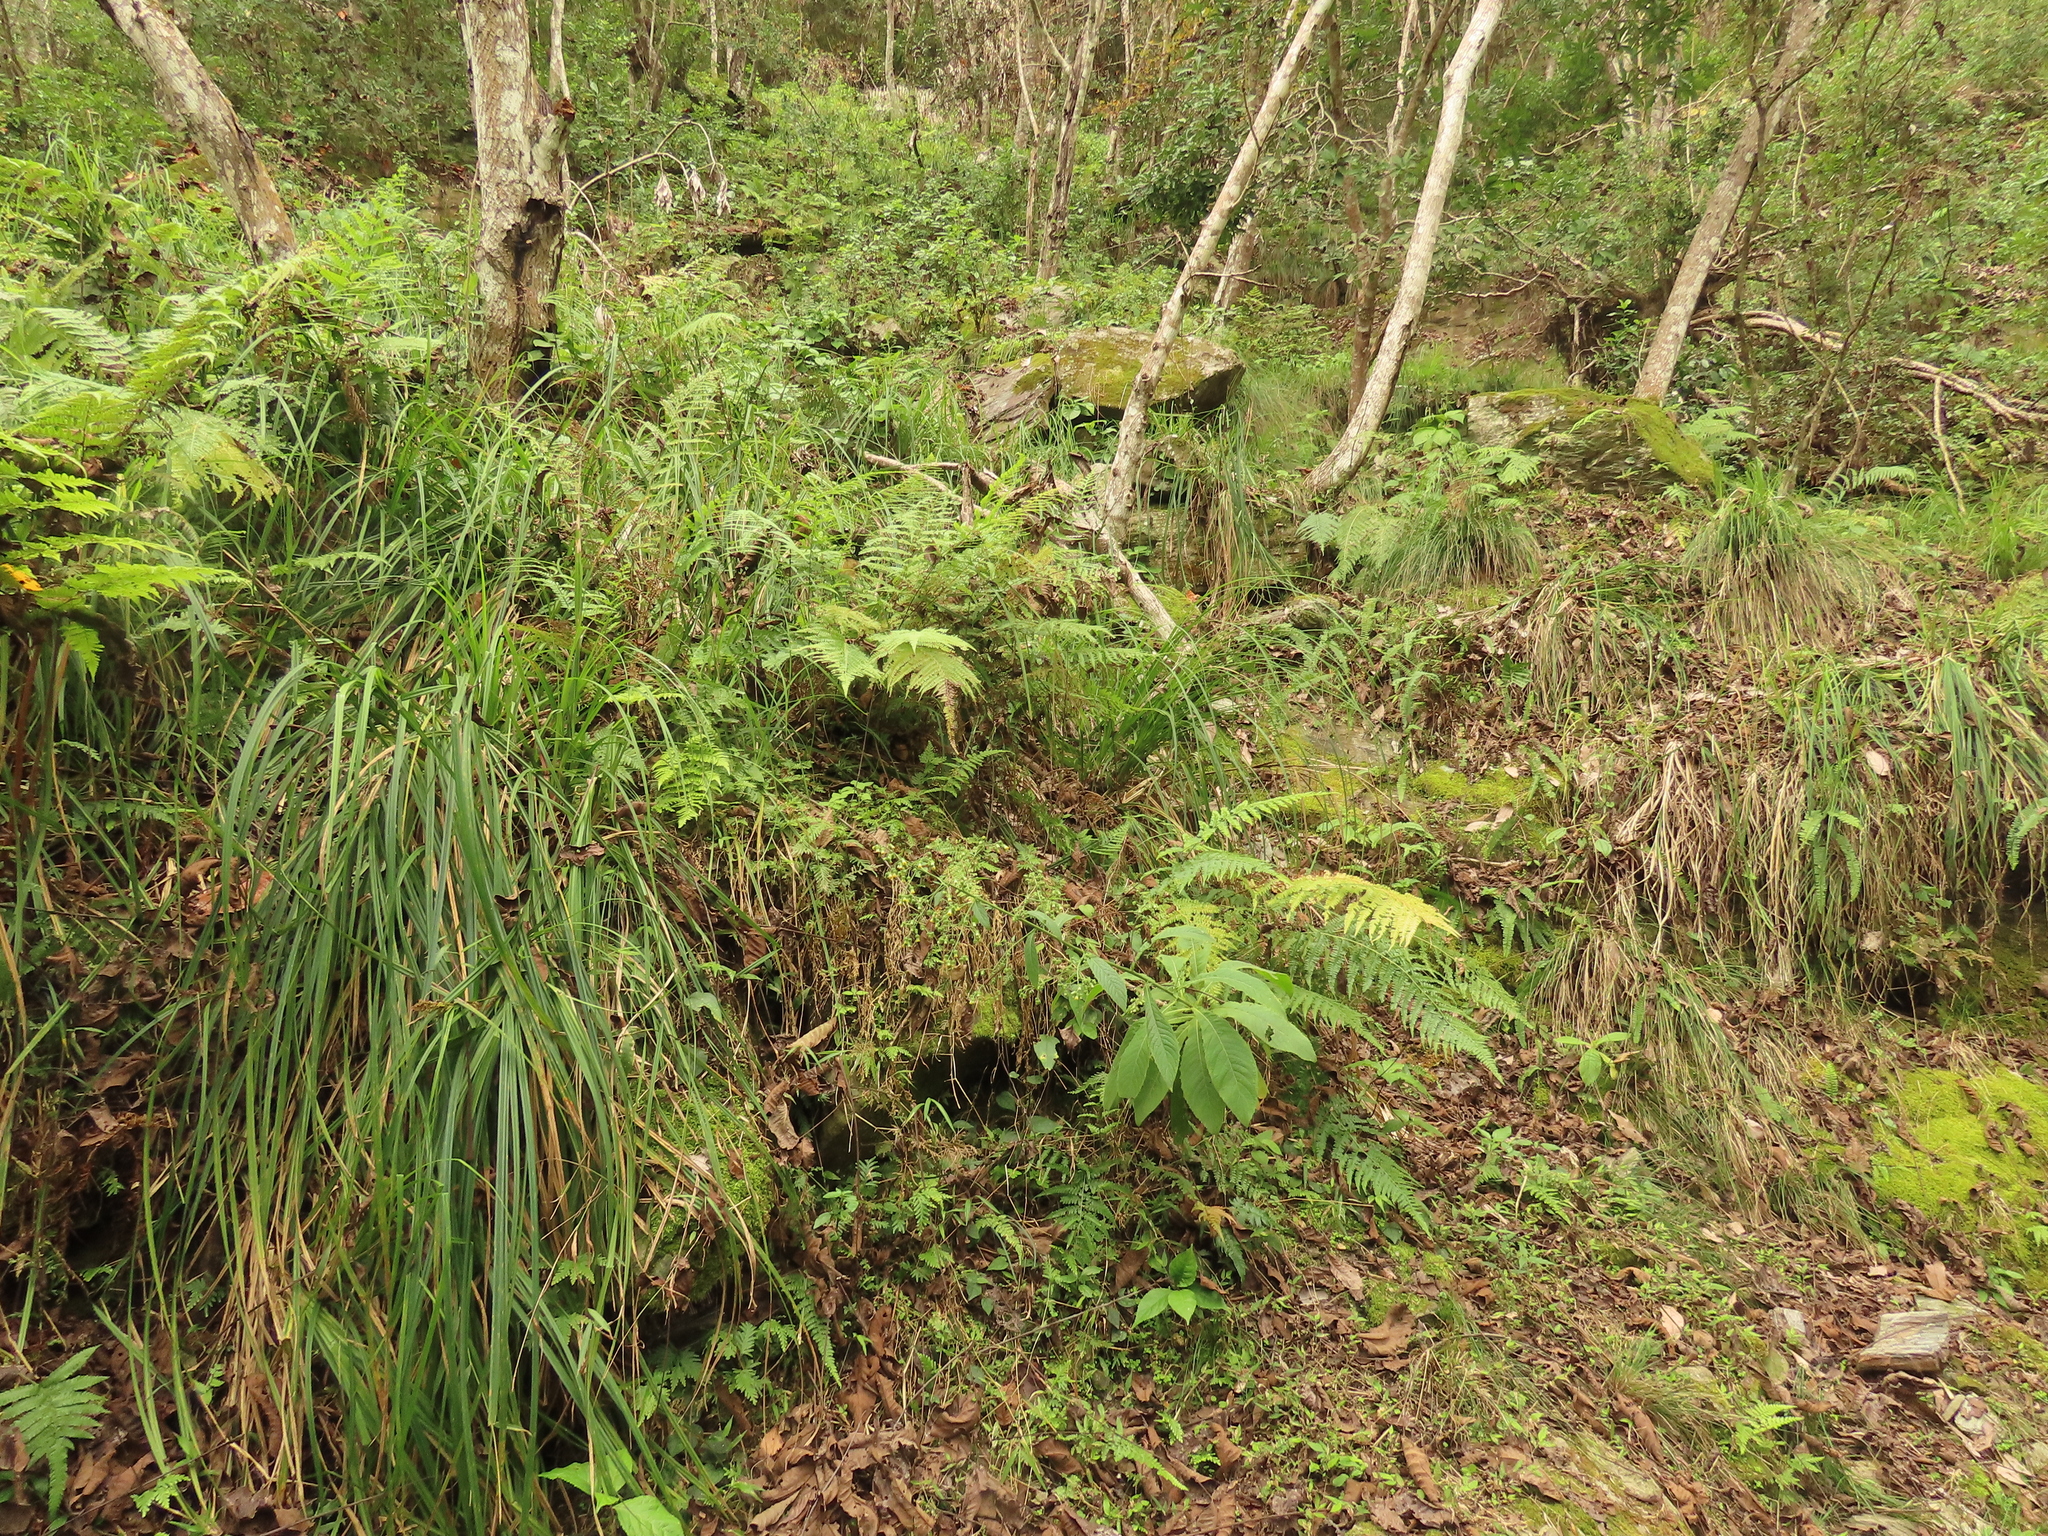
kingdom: Plantae
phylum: Tracheophyta
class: Magnoliopsida
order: Asterales
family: Asteraceae
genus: Blumea
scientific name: Blumea aromatica
